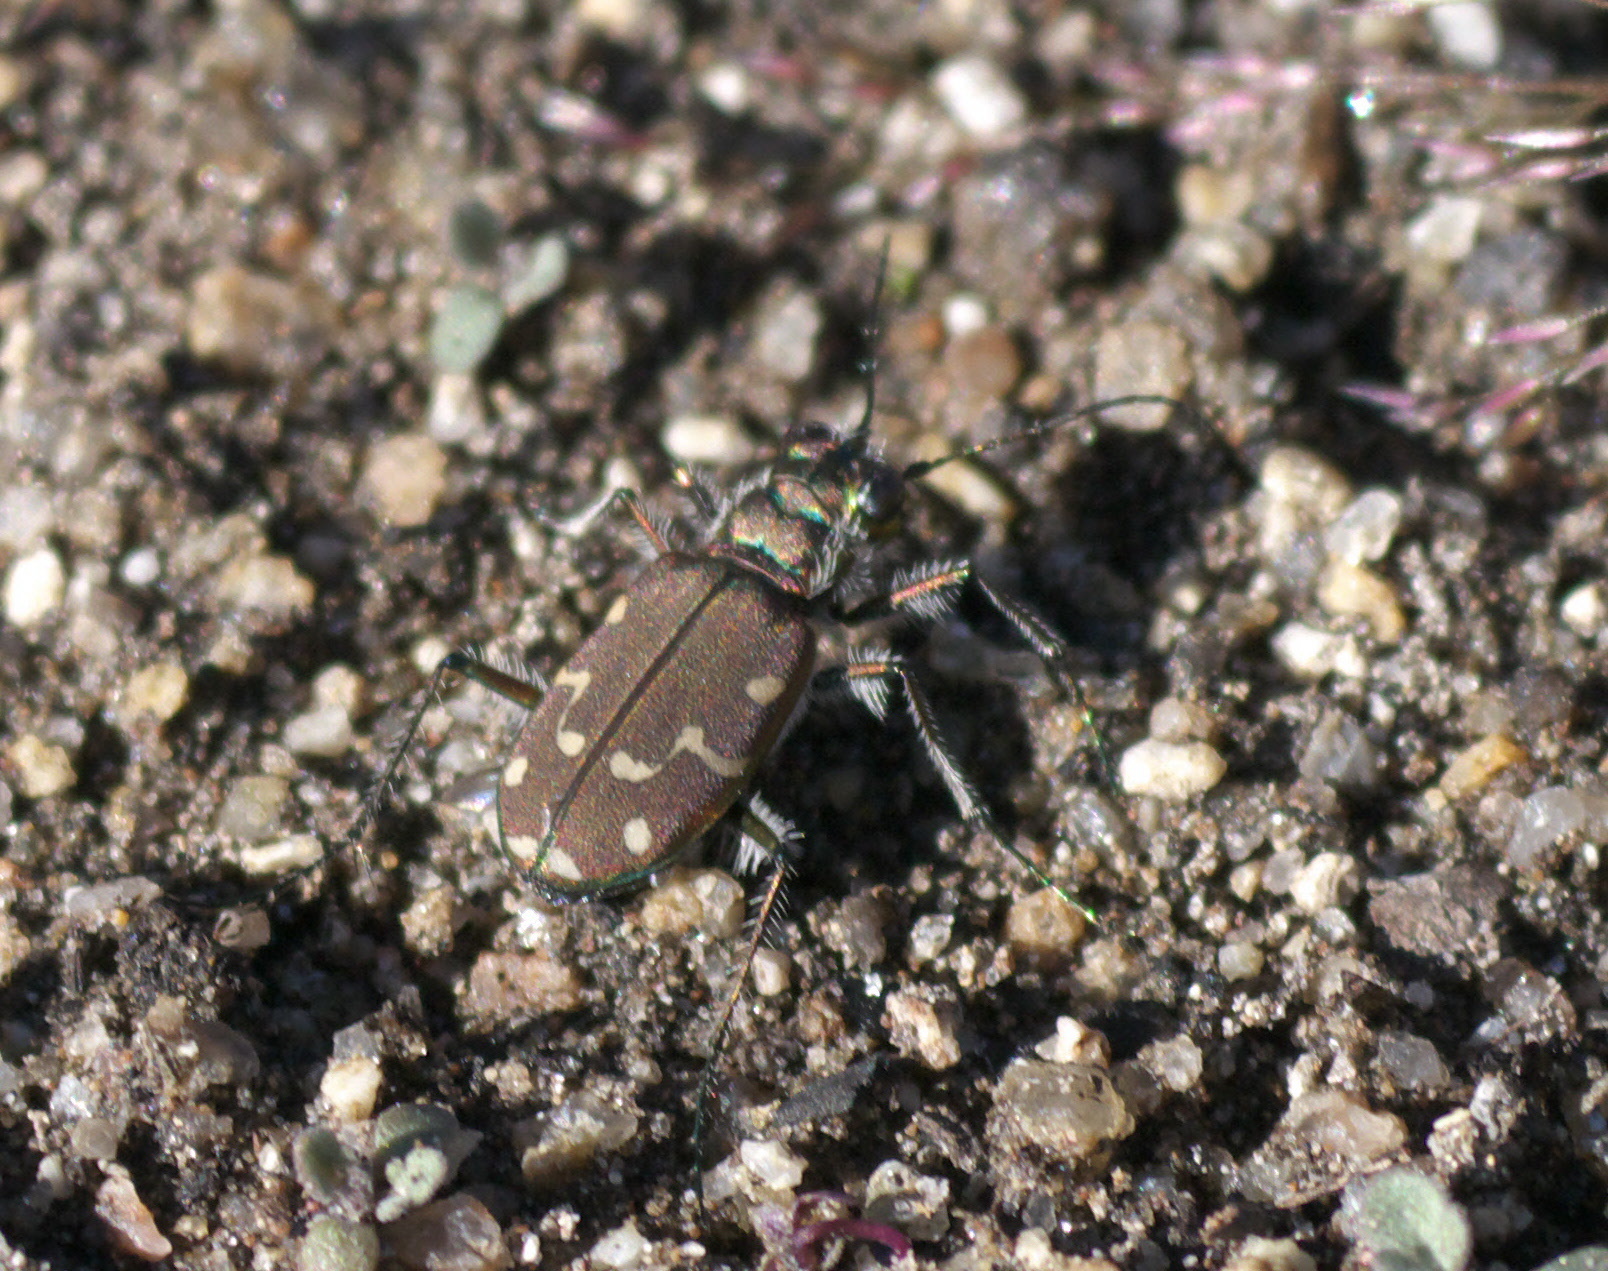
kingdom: Animalia
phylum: Arthropoda
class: Insecta
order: Coleoptera
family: Carabidae
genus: Cicindela
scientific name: Cicindela oregona
